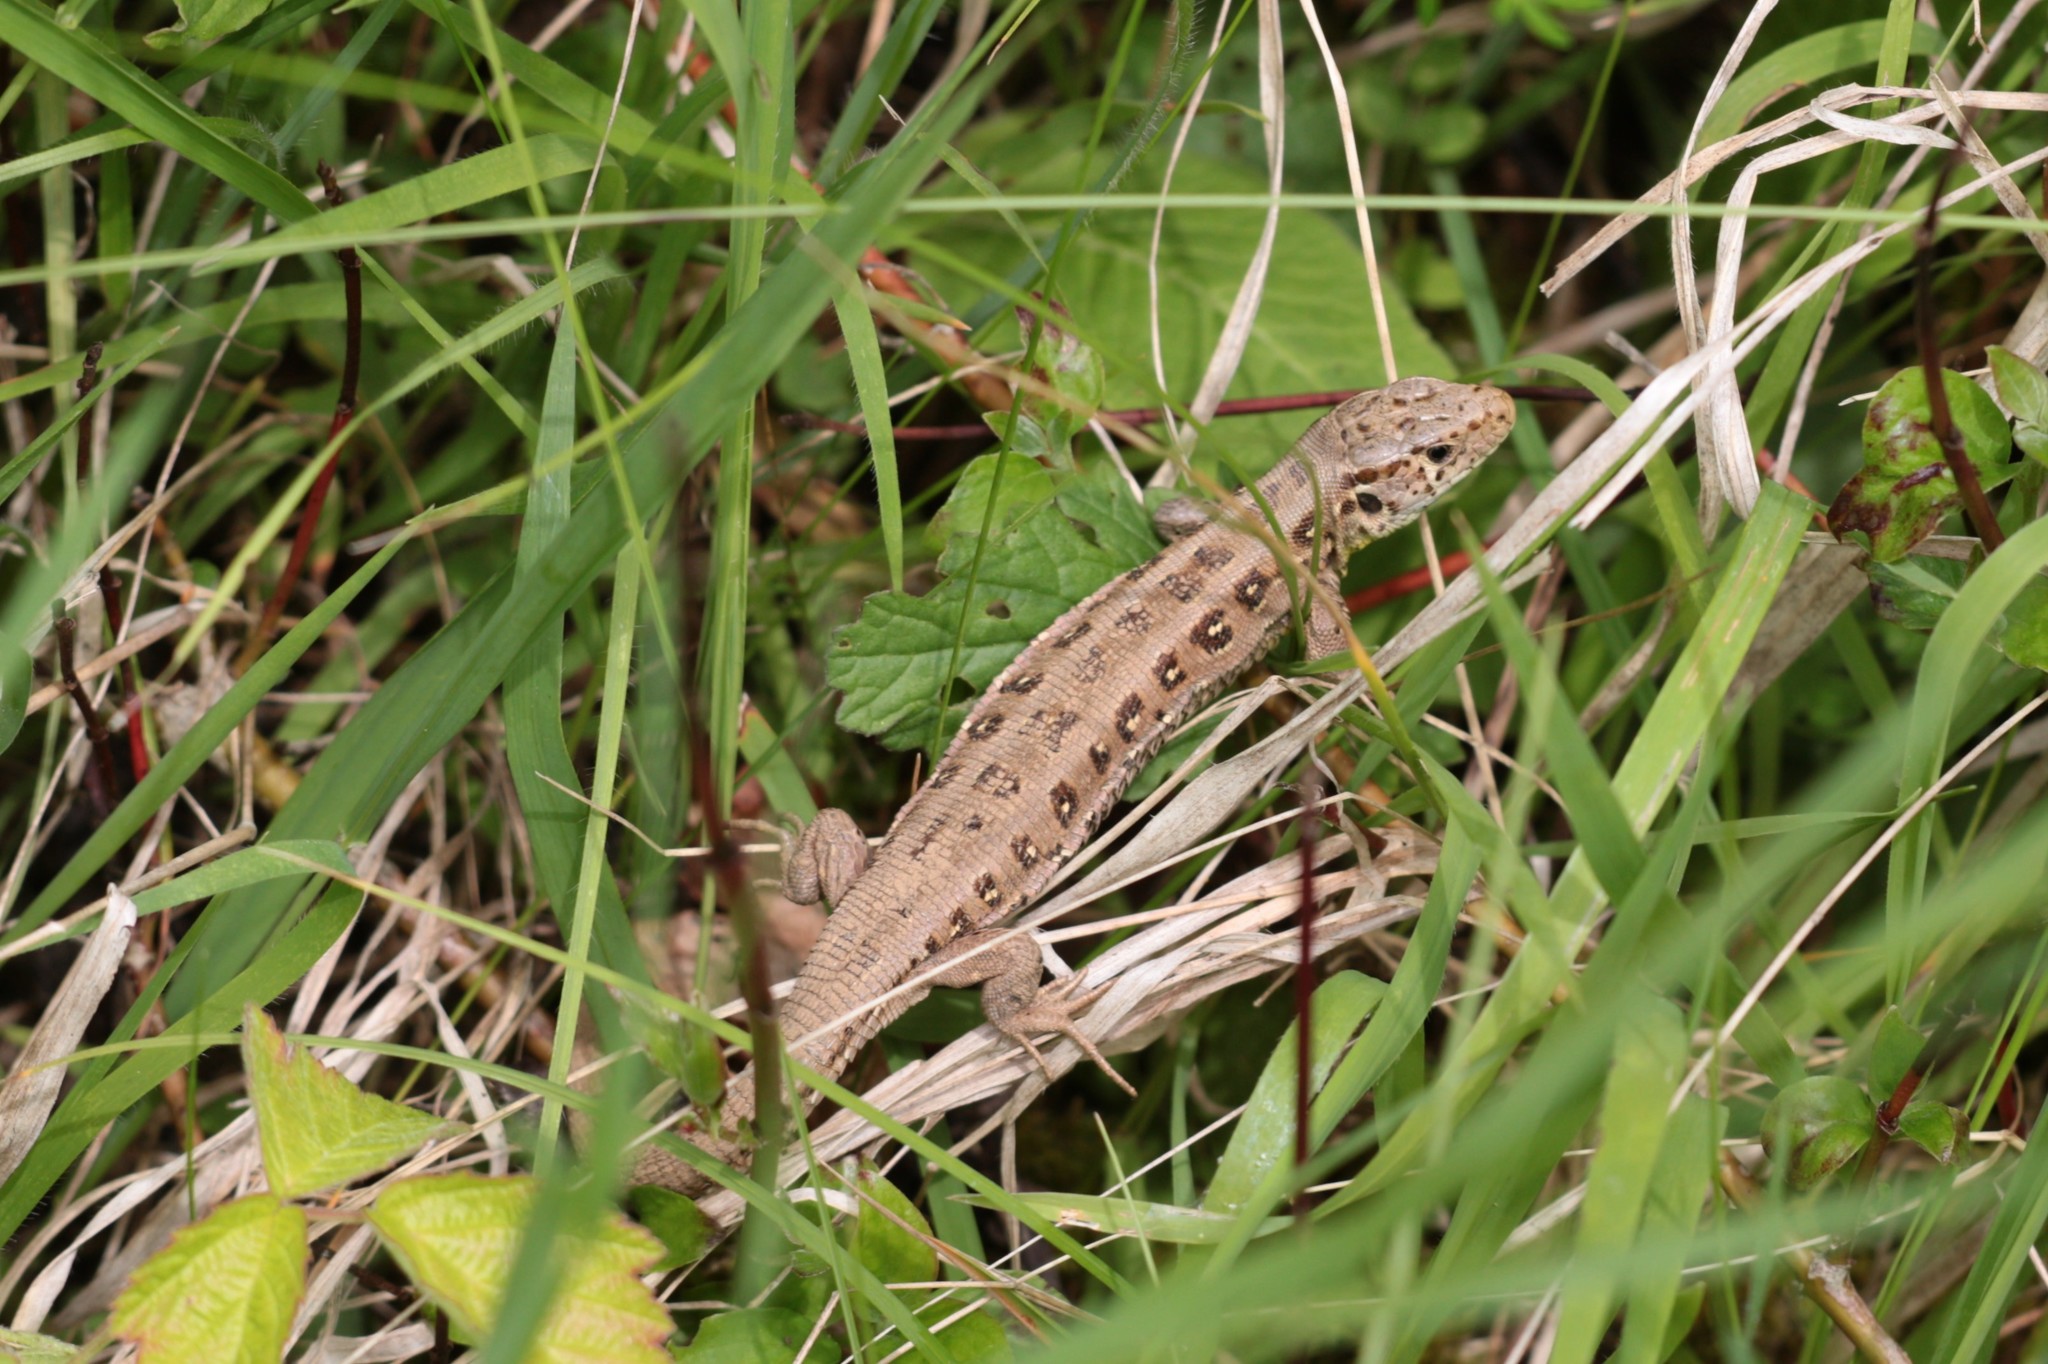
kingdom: Animalia
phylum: Chordata
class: Squamata
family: Lacertidae
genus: Lacerta
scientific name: Lacerta agilis
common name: Sand lizard
